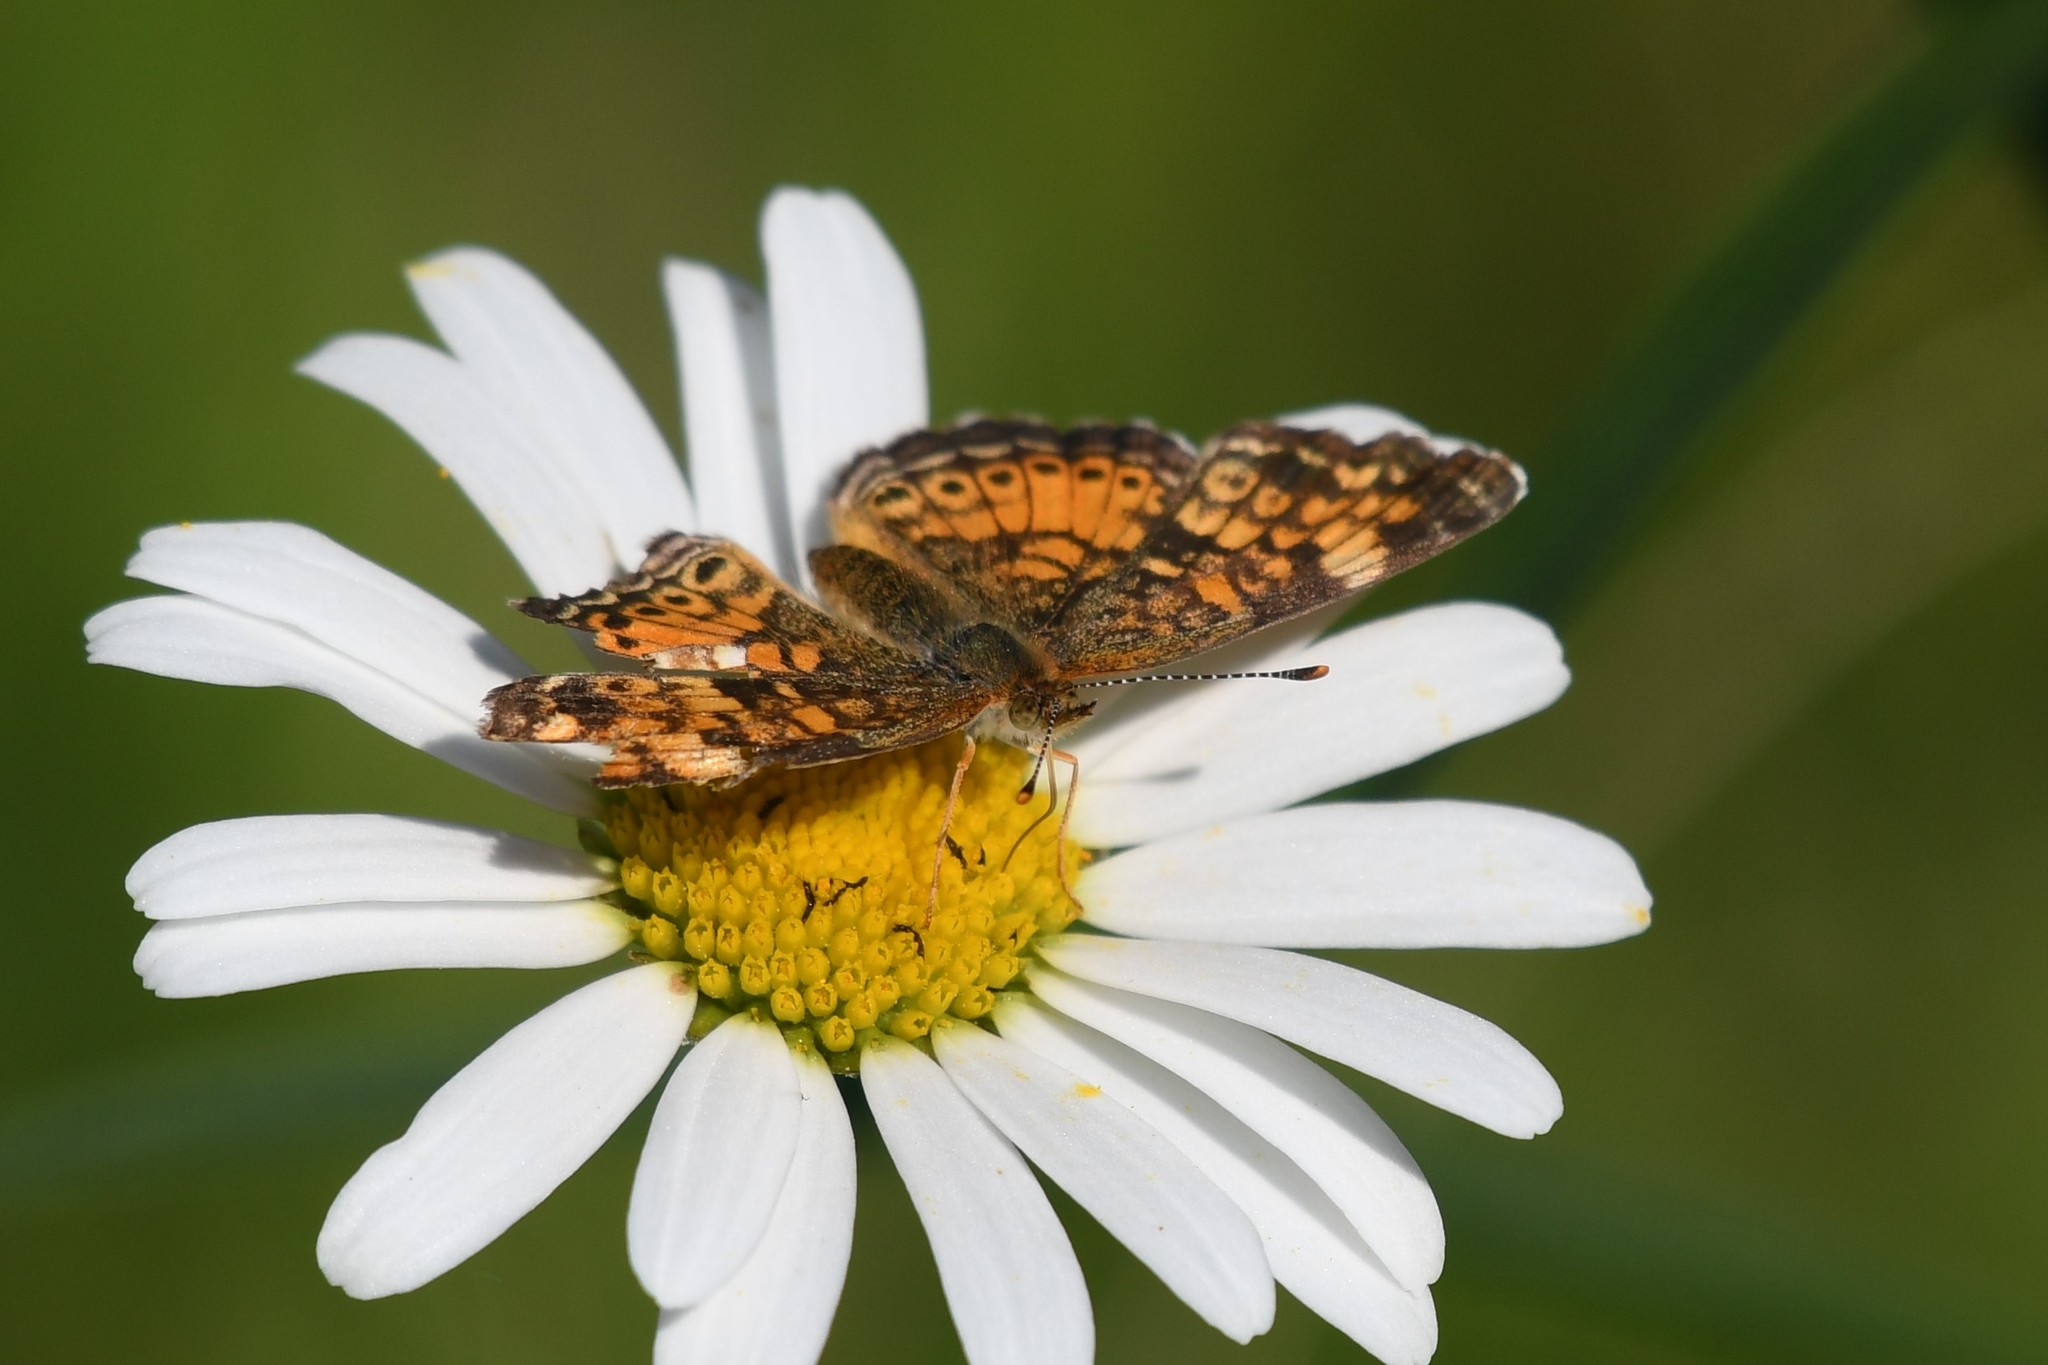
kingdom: Animalia
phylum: Arthropoda
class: Insecta
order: Lepidoptera
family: Nymphalidae
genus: Phyciodes
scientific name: Phyciodes tharos
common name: Pearl crescent
